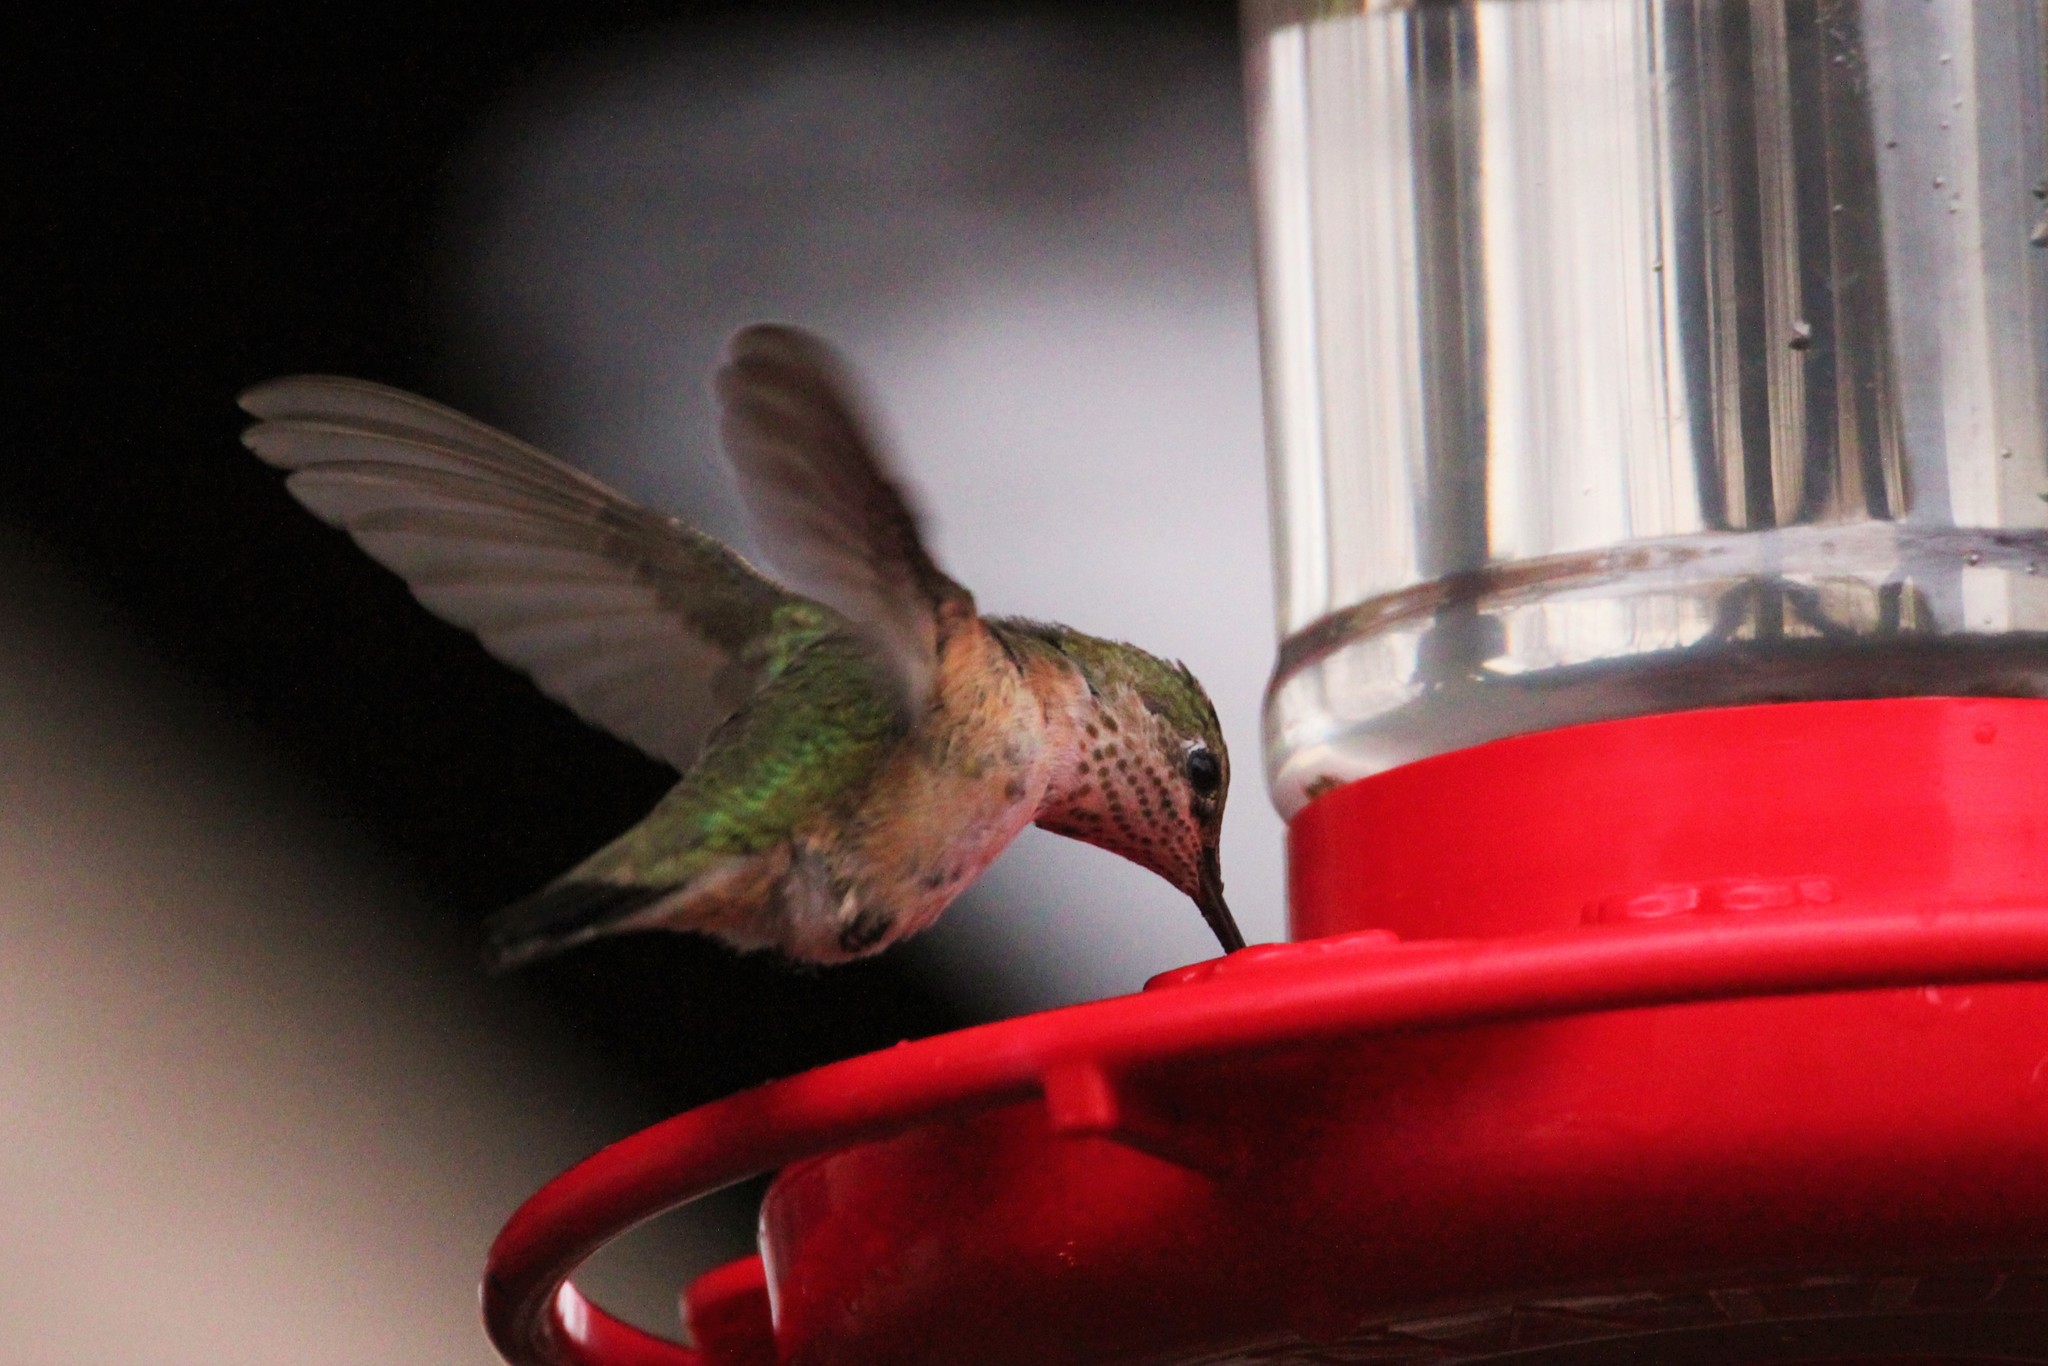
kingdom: Animalia
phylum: Chordata
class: Aves
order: Apodiformes
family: Trochilidae
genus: Selasphorus
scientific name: Selasphorus calliope
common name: Calliope hummingbird
